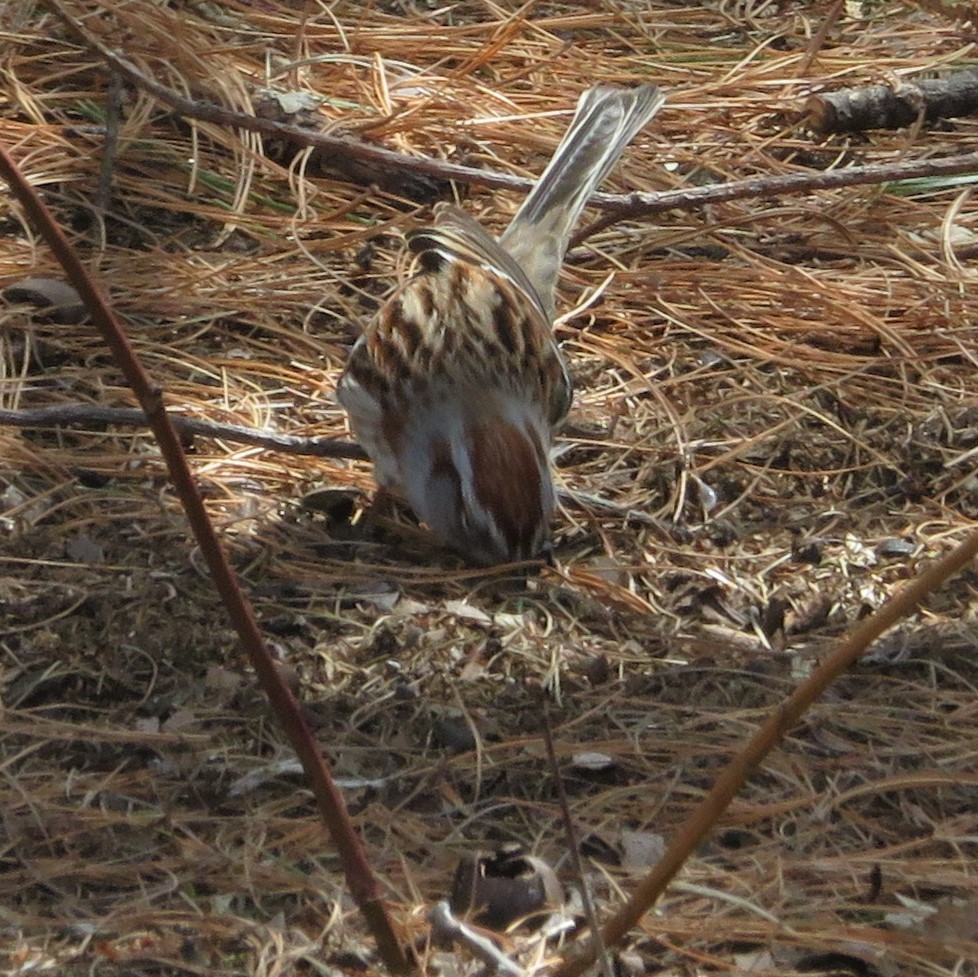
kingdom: Animalia
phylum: Chordata
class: Aves
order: Passeriformes
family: Passerellidae
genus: Spizelloides
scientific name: Spizelloides arborea
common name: American tree sparrow
